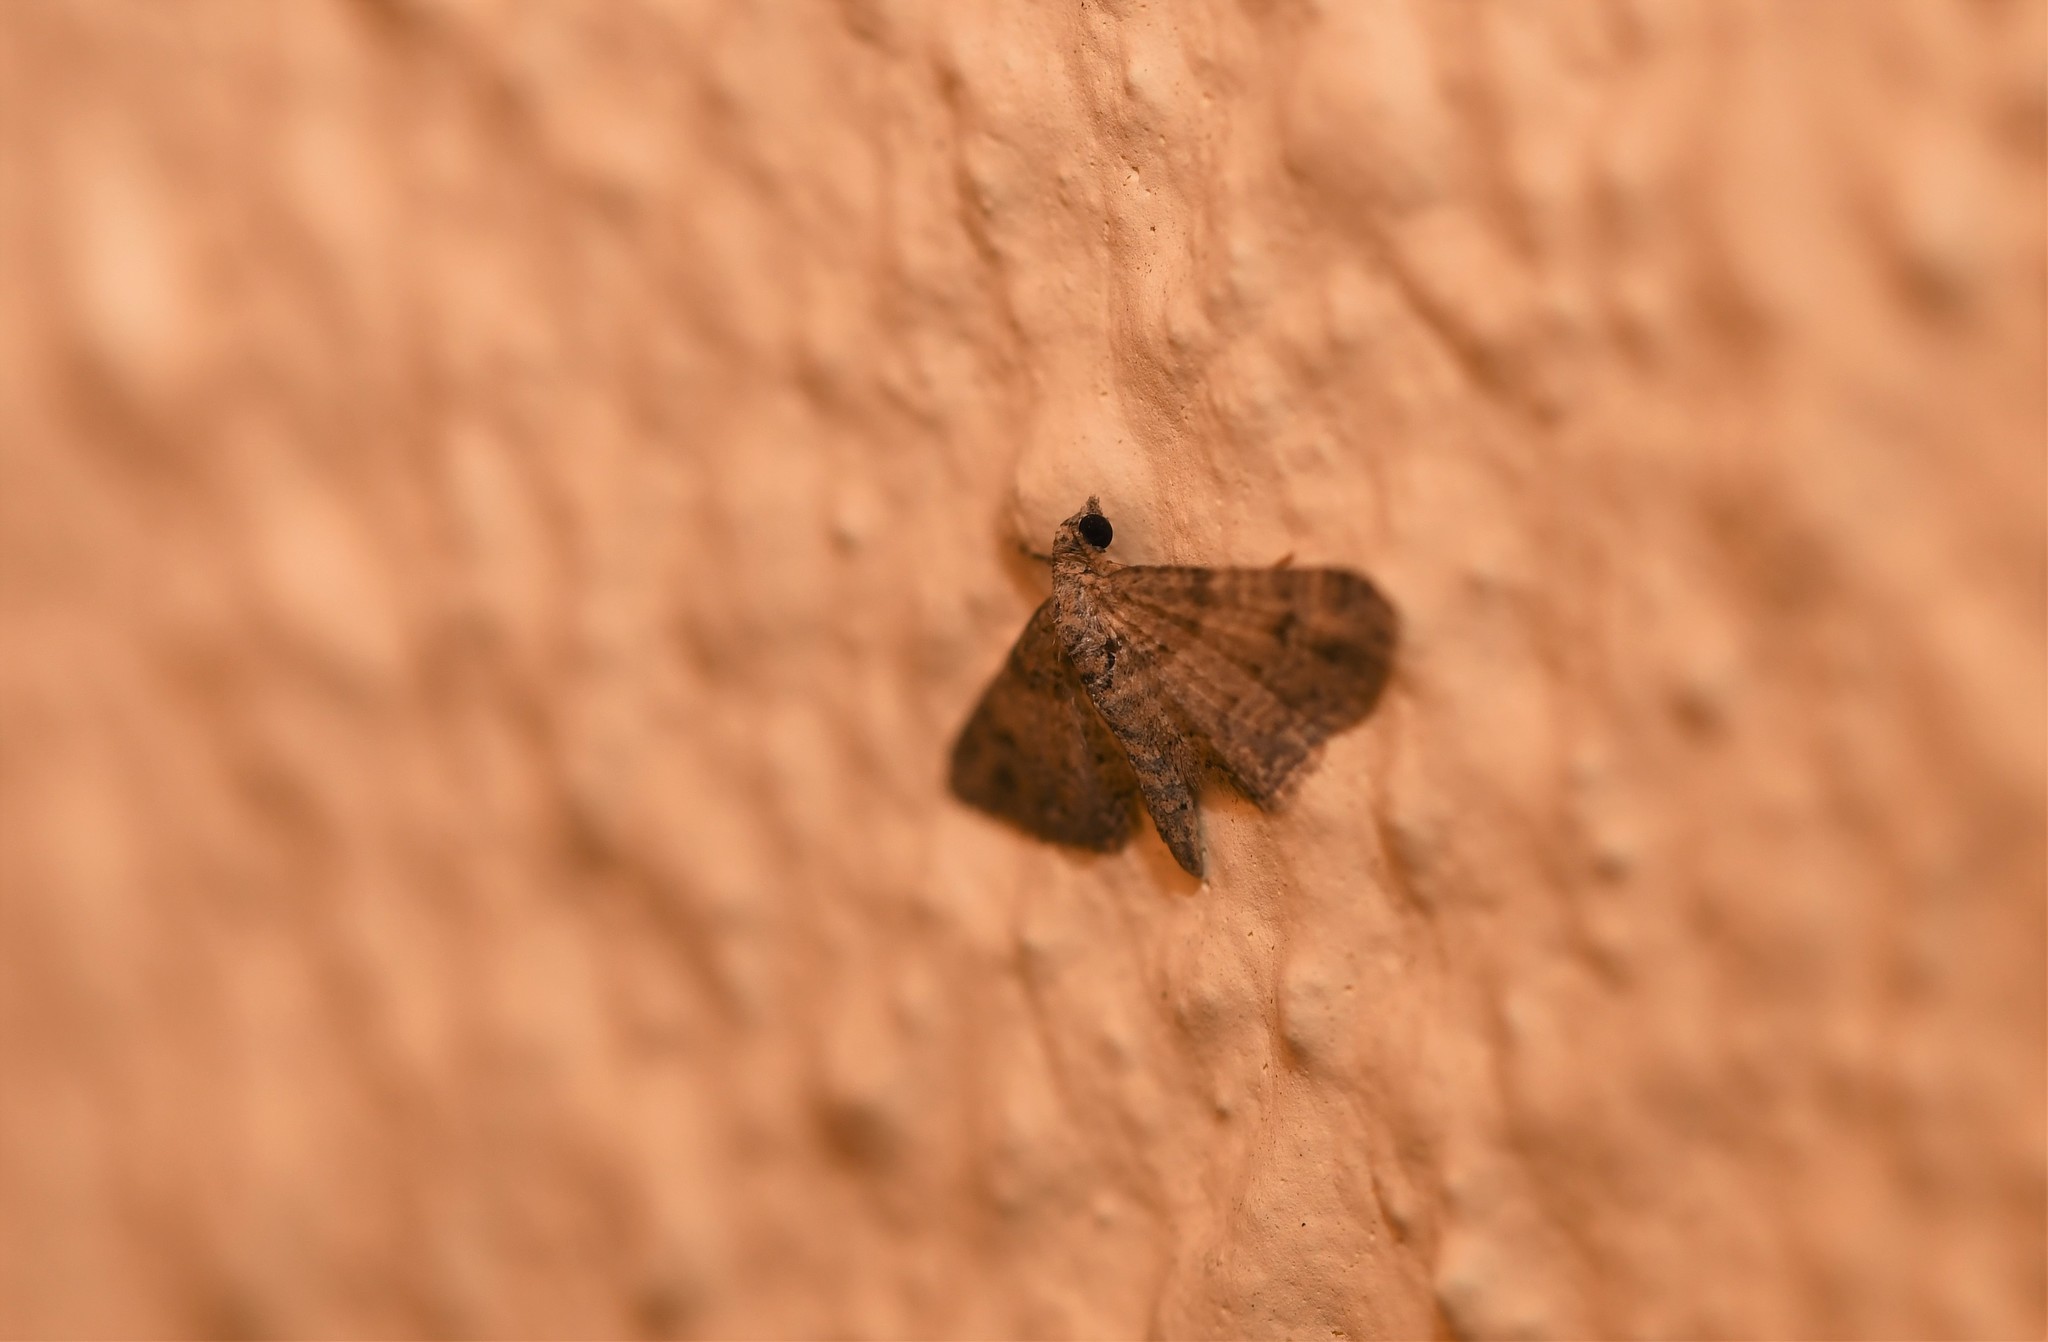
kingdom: Animalia
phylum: Arthropoda
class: Insecta
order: Lepidoptera
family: Geometridae
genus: Gymnoscelis
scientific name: Gymnoscelis rufifasciata
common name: Double-striped pug
